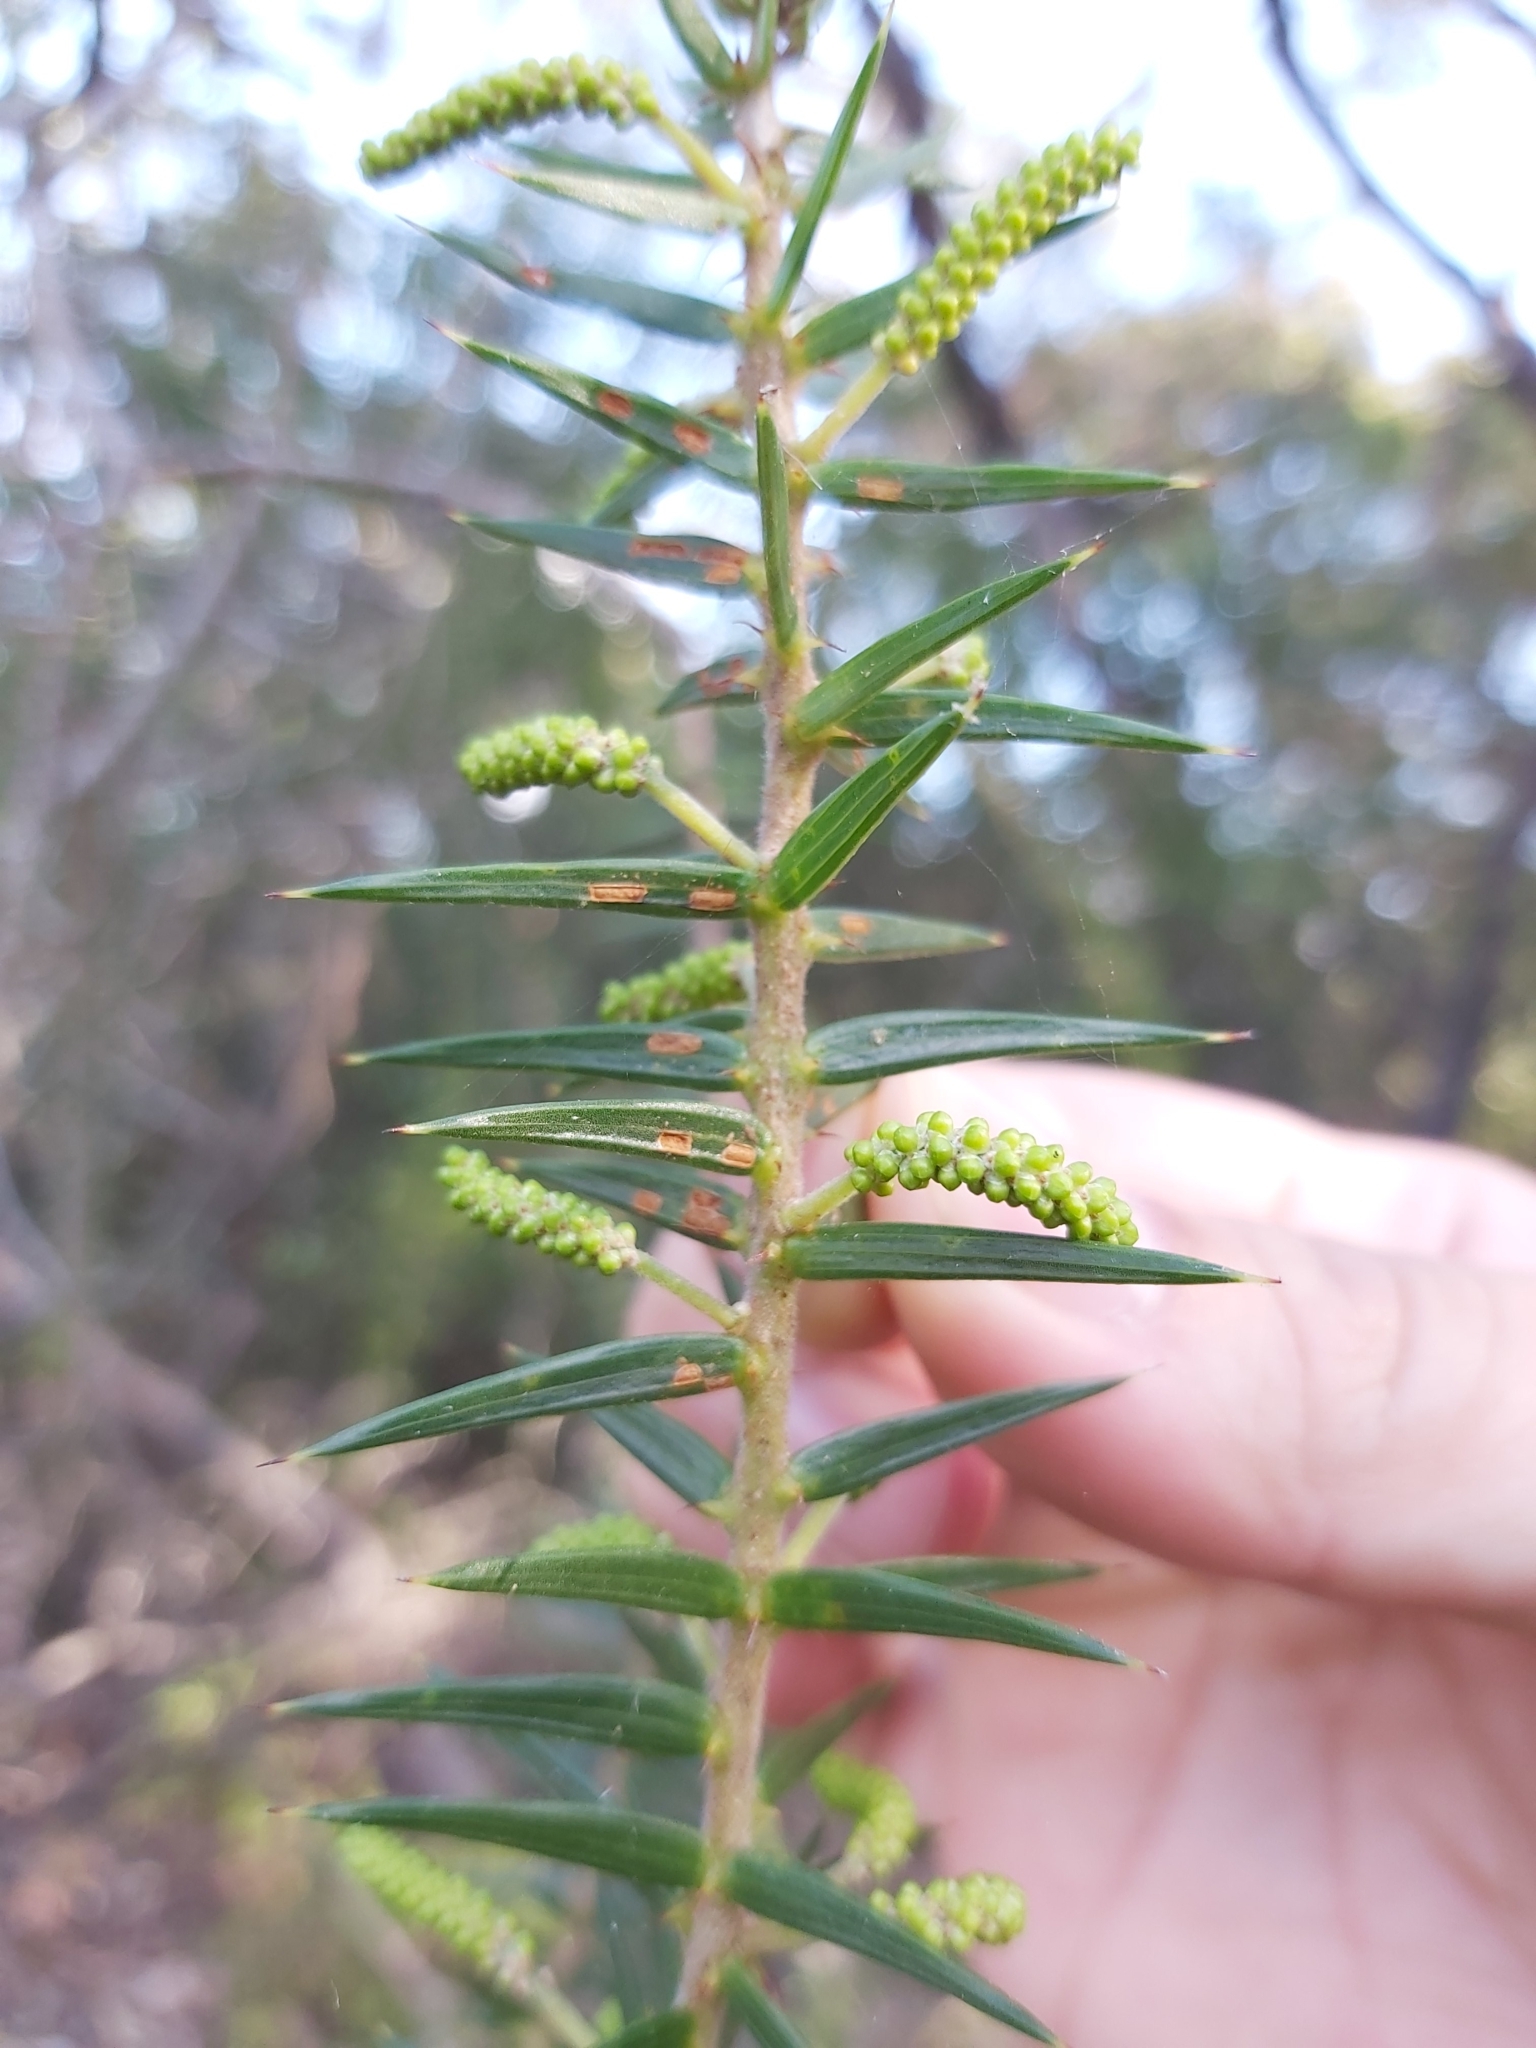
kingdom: Plantae
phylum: Tracheophyta
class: Magnoliopsida
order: Fabales
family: Fabaceae
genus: Acacia
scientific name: Acacia oxycedrus
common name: Spike wattle
